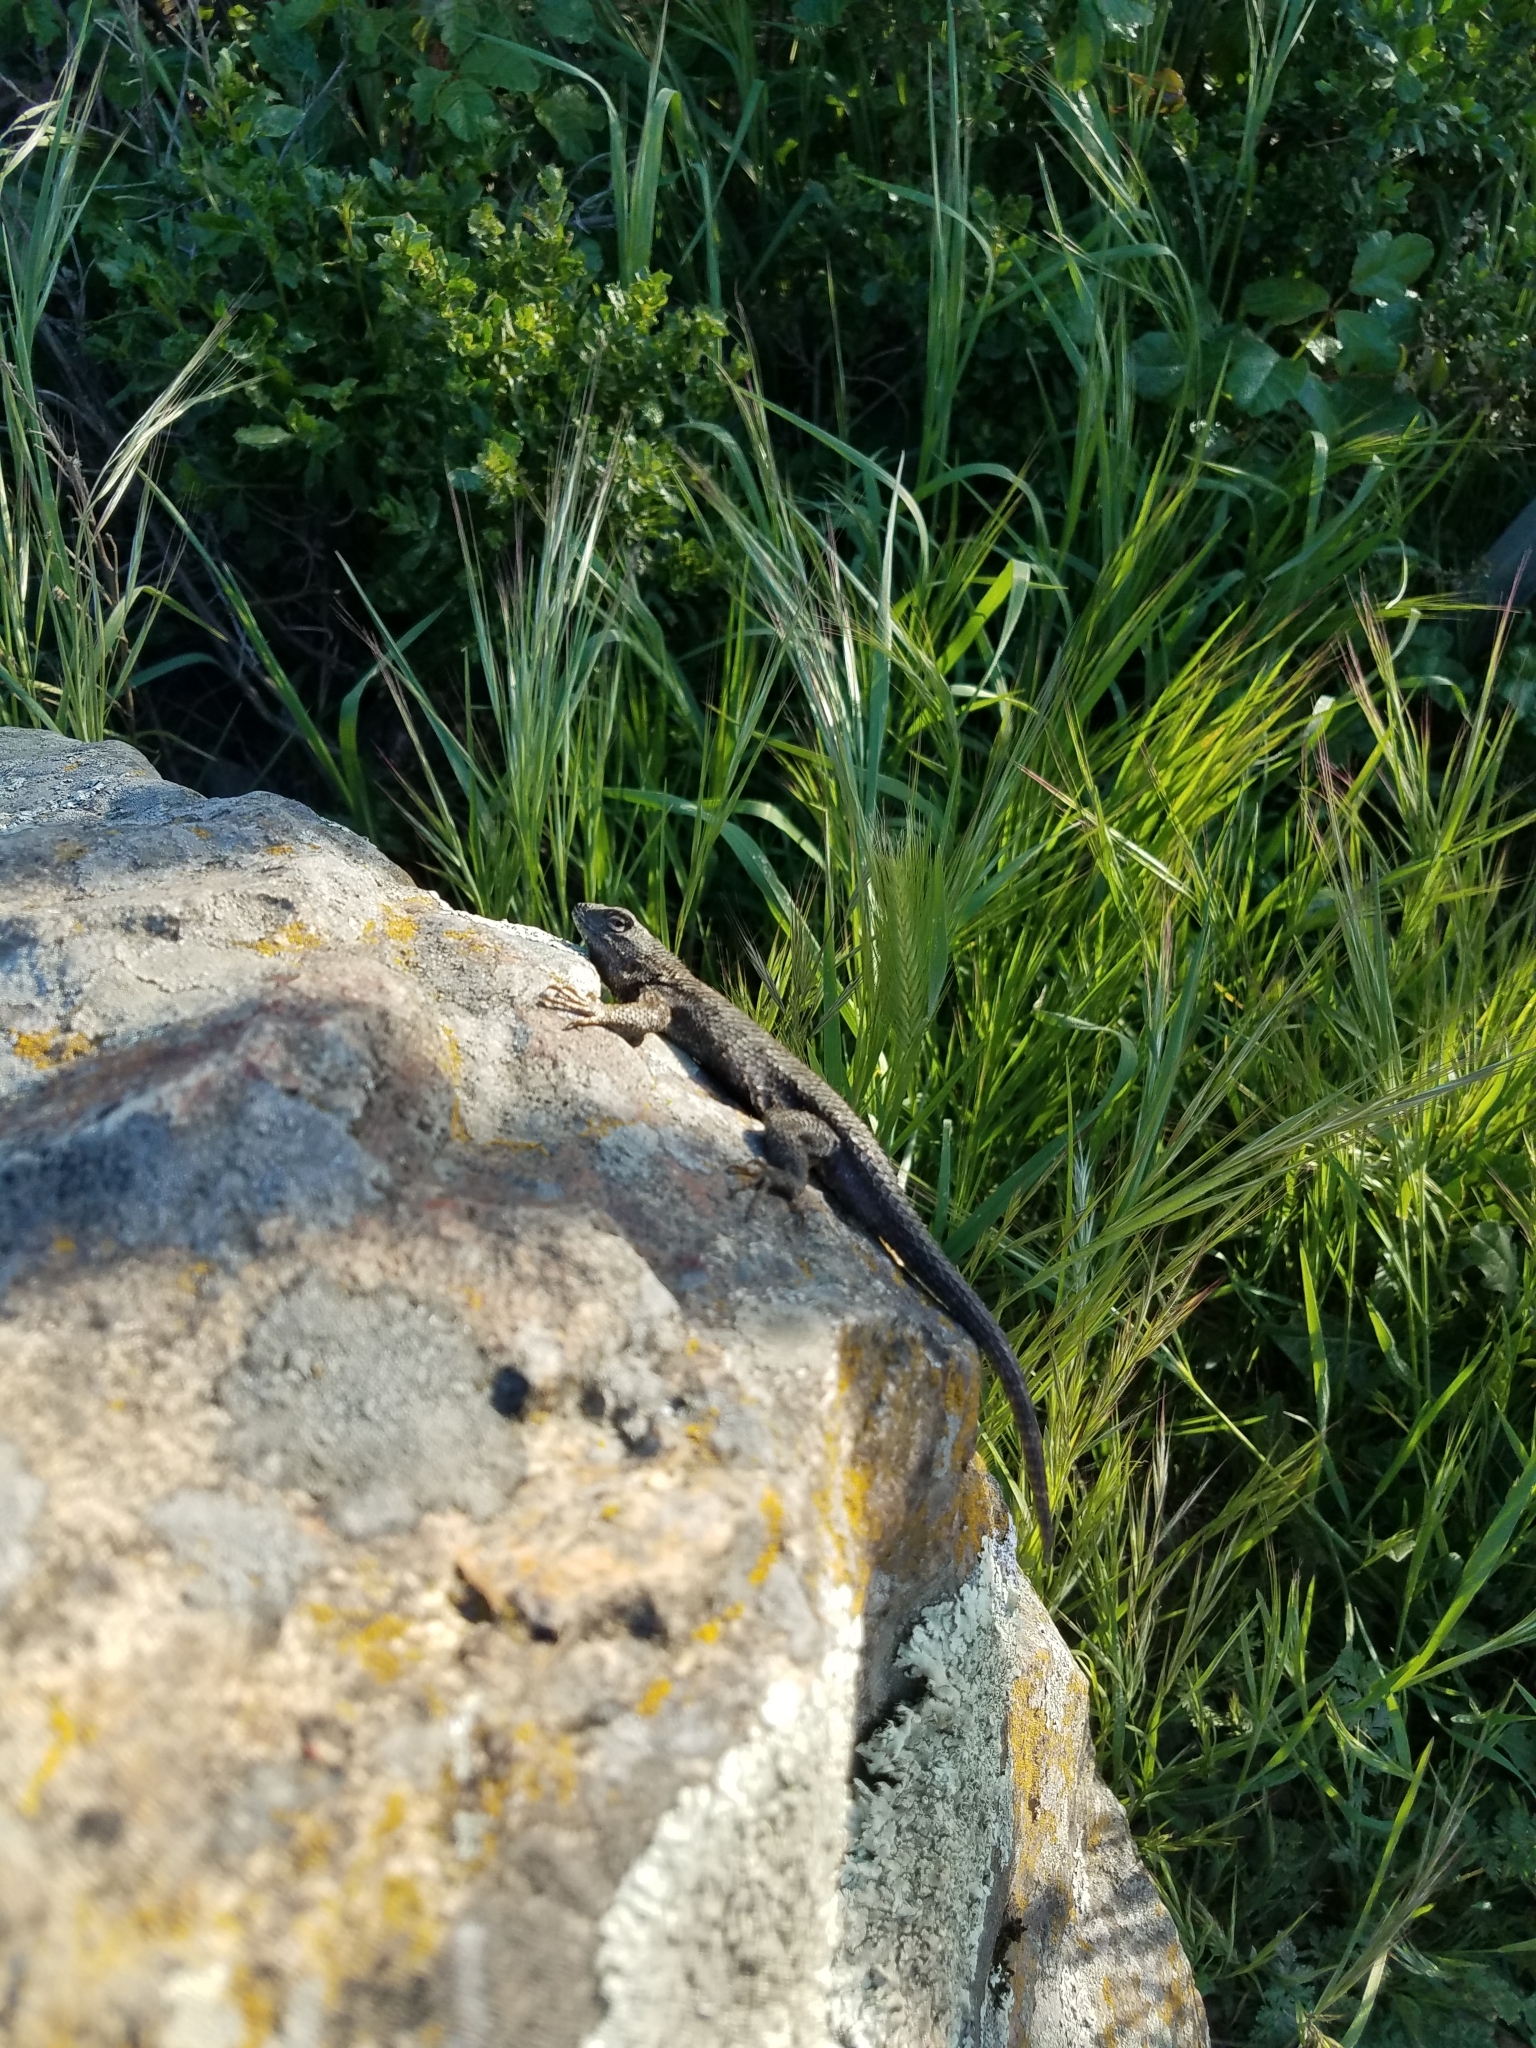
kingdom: Animalia
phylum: Chordata
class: Squamata
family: Phrynosomatidae
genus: Sceloporus
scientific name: Sceloporus occidentalis
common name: Western fence lizard
